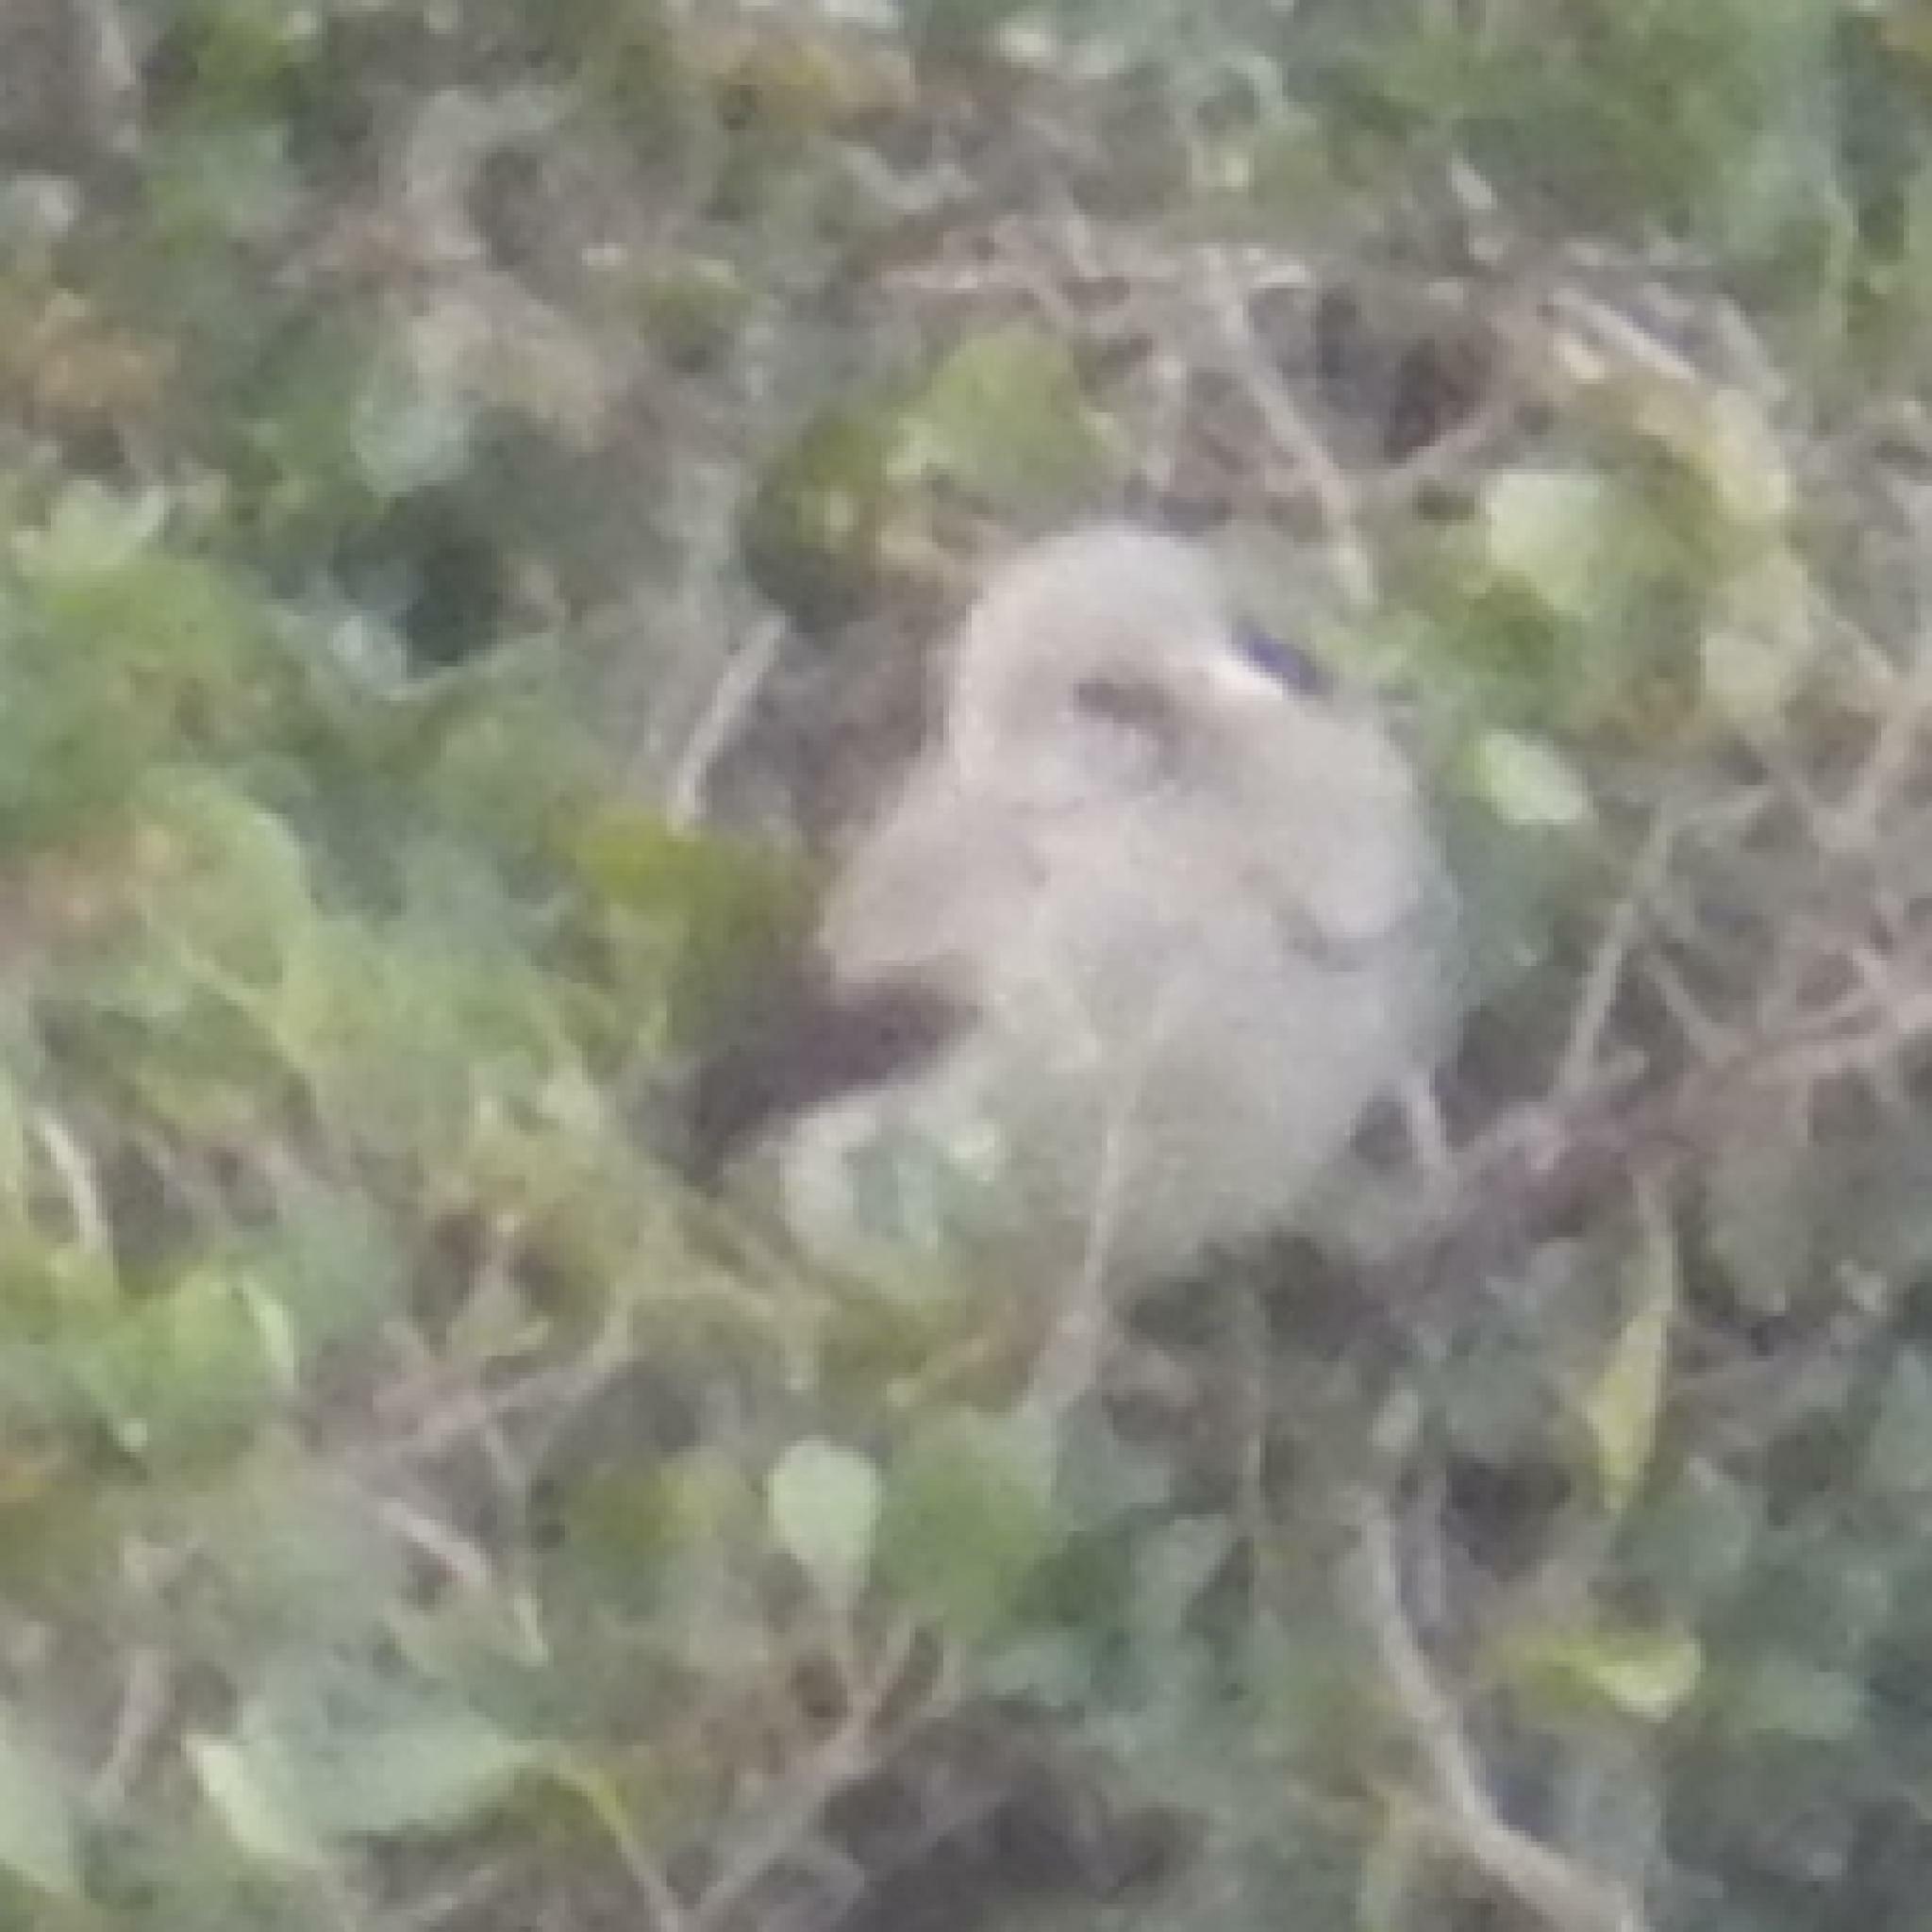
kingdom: Animalia
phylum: Chordata
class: Aves
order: Passeriformes
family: Sturnidae
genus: Creatophora
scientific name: Creatophora cinerea
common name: Wattled starling
